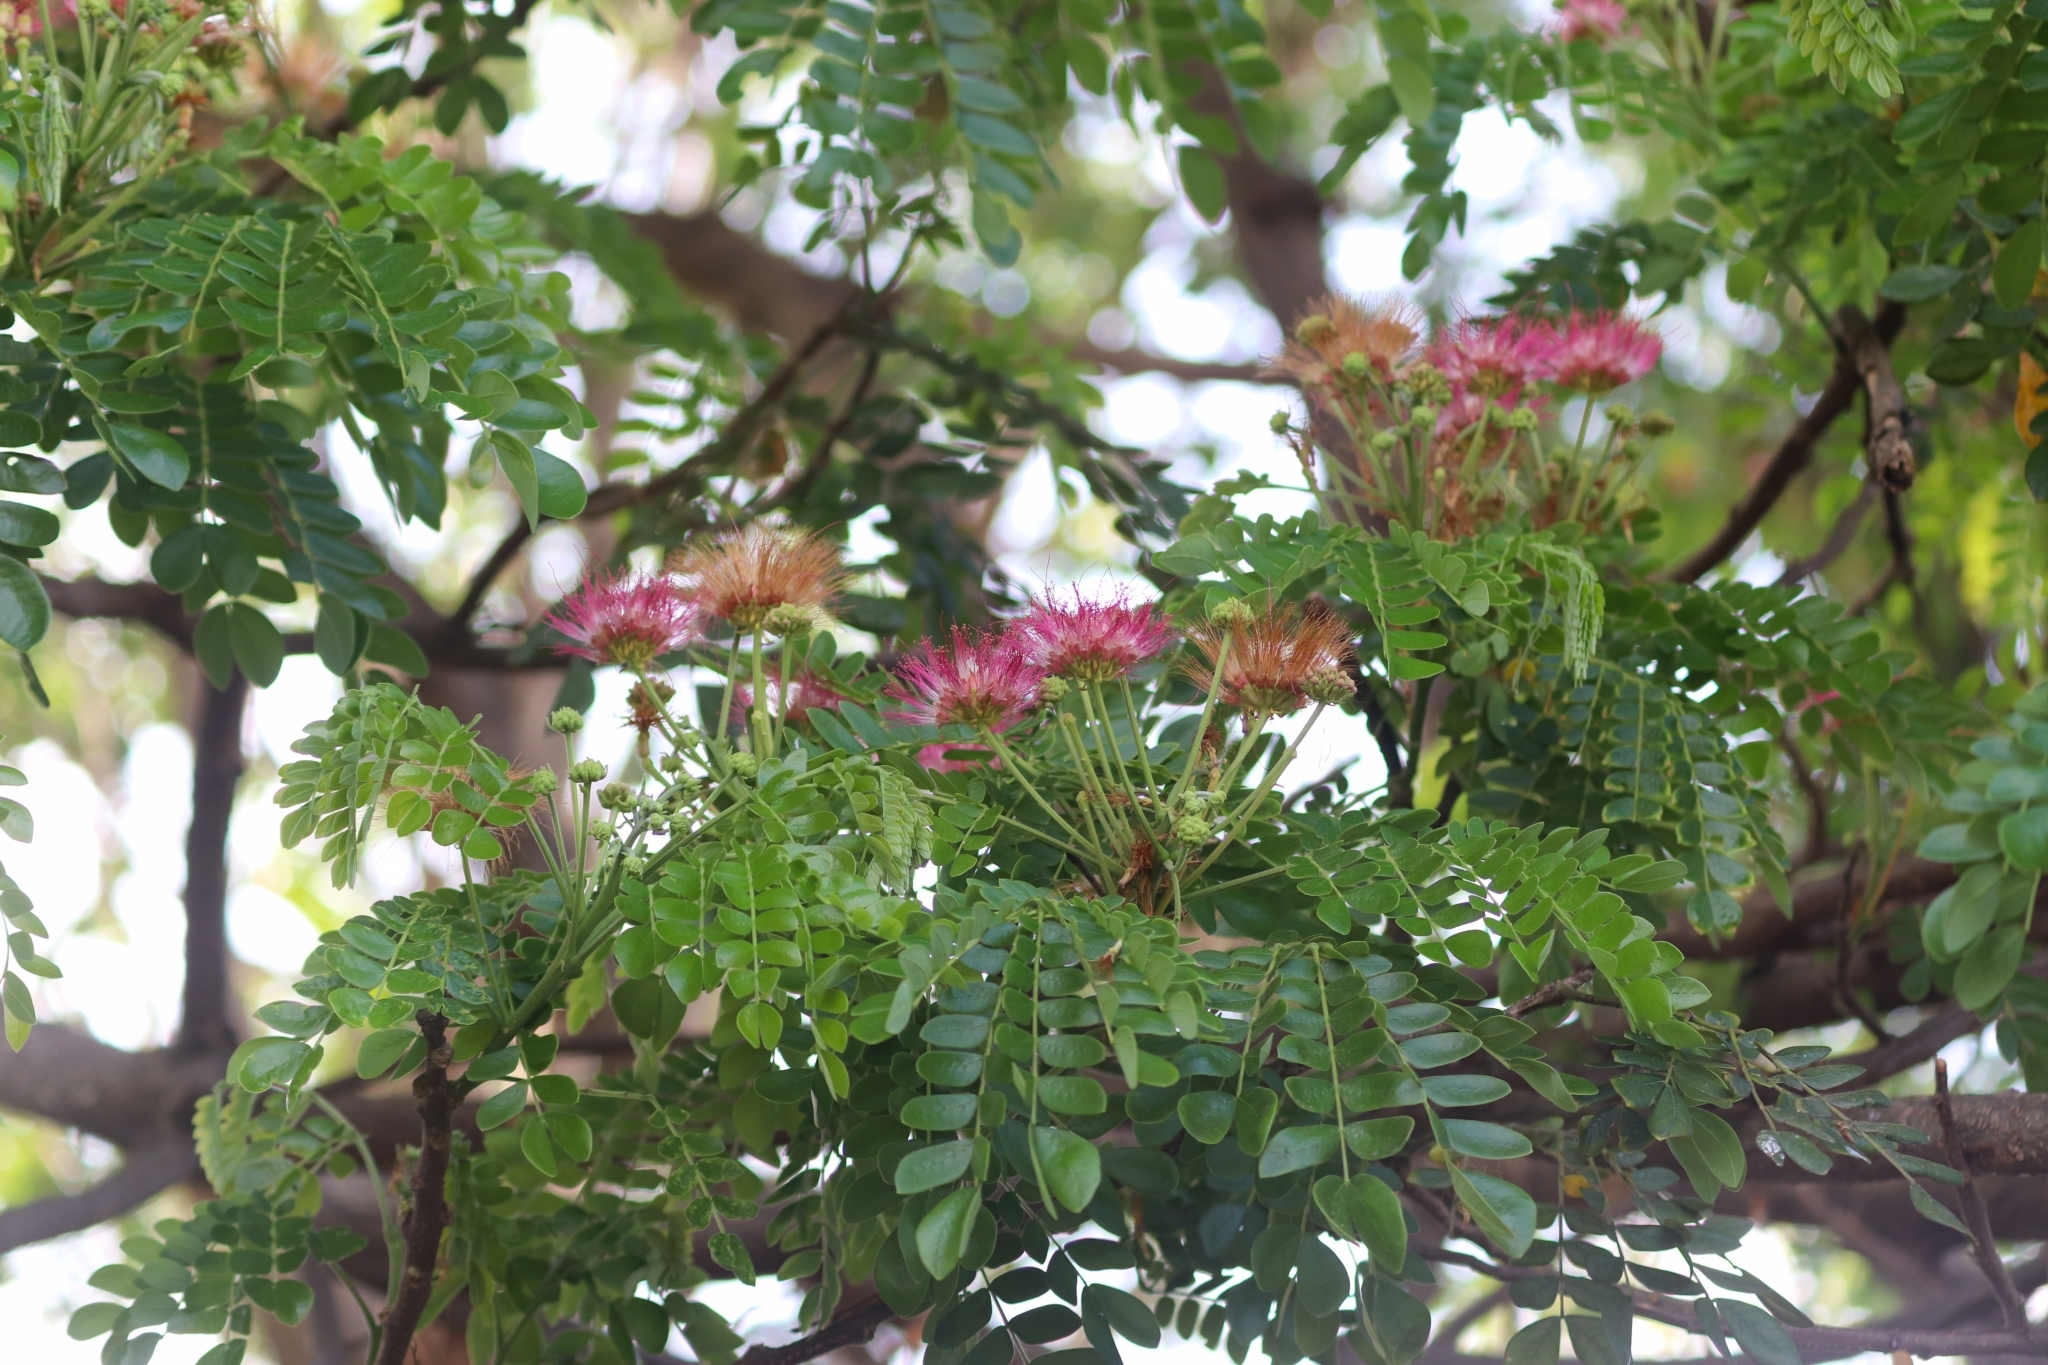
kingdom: Plantae
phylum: Tracheophyta
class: Magnoliopsida
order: Fabales
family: Fabaceae
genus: Samanea
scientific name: Samanea saman
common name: Raintree
